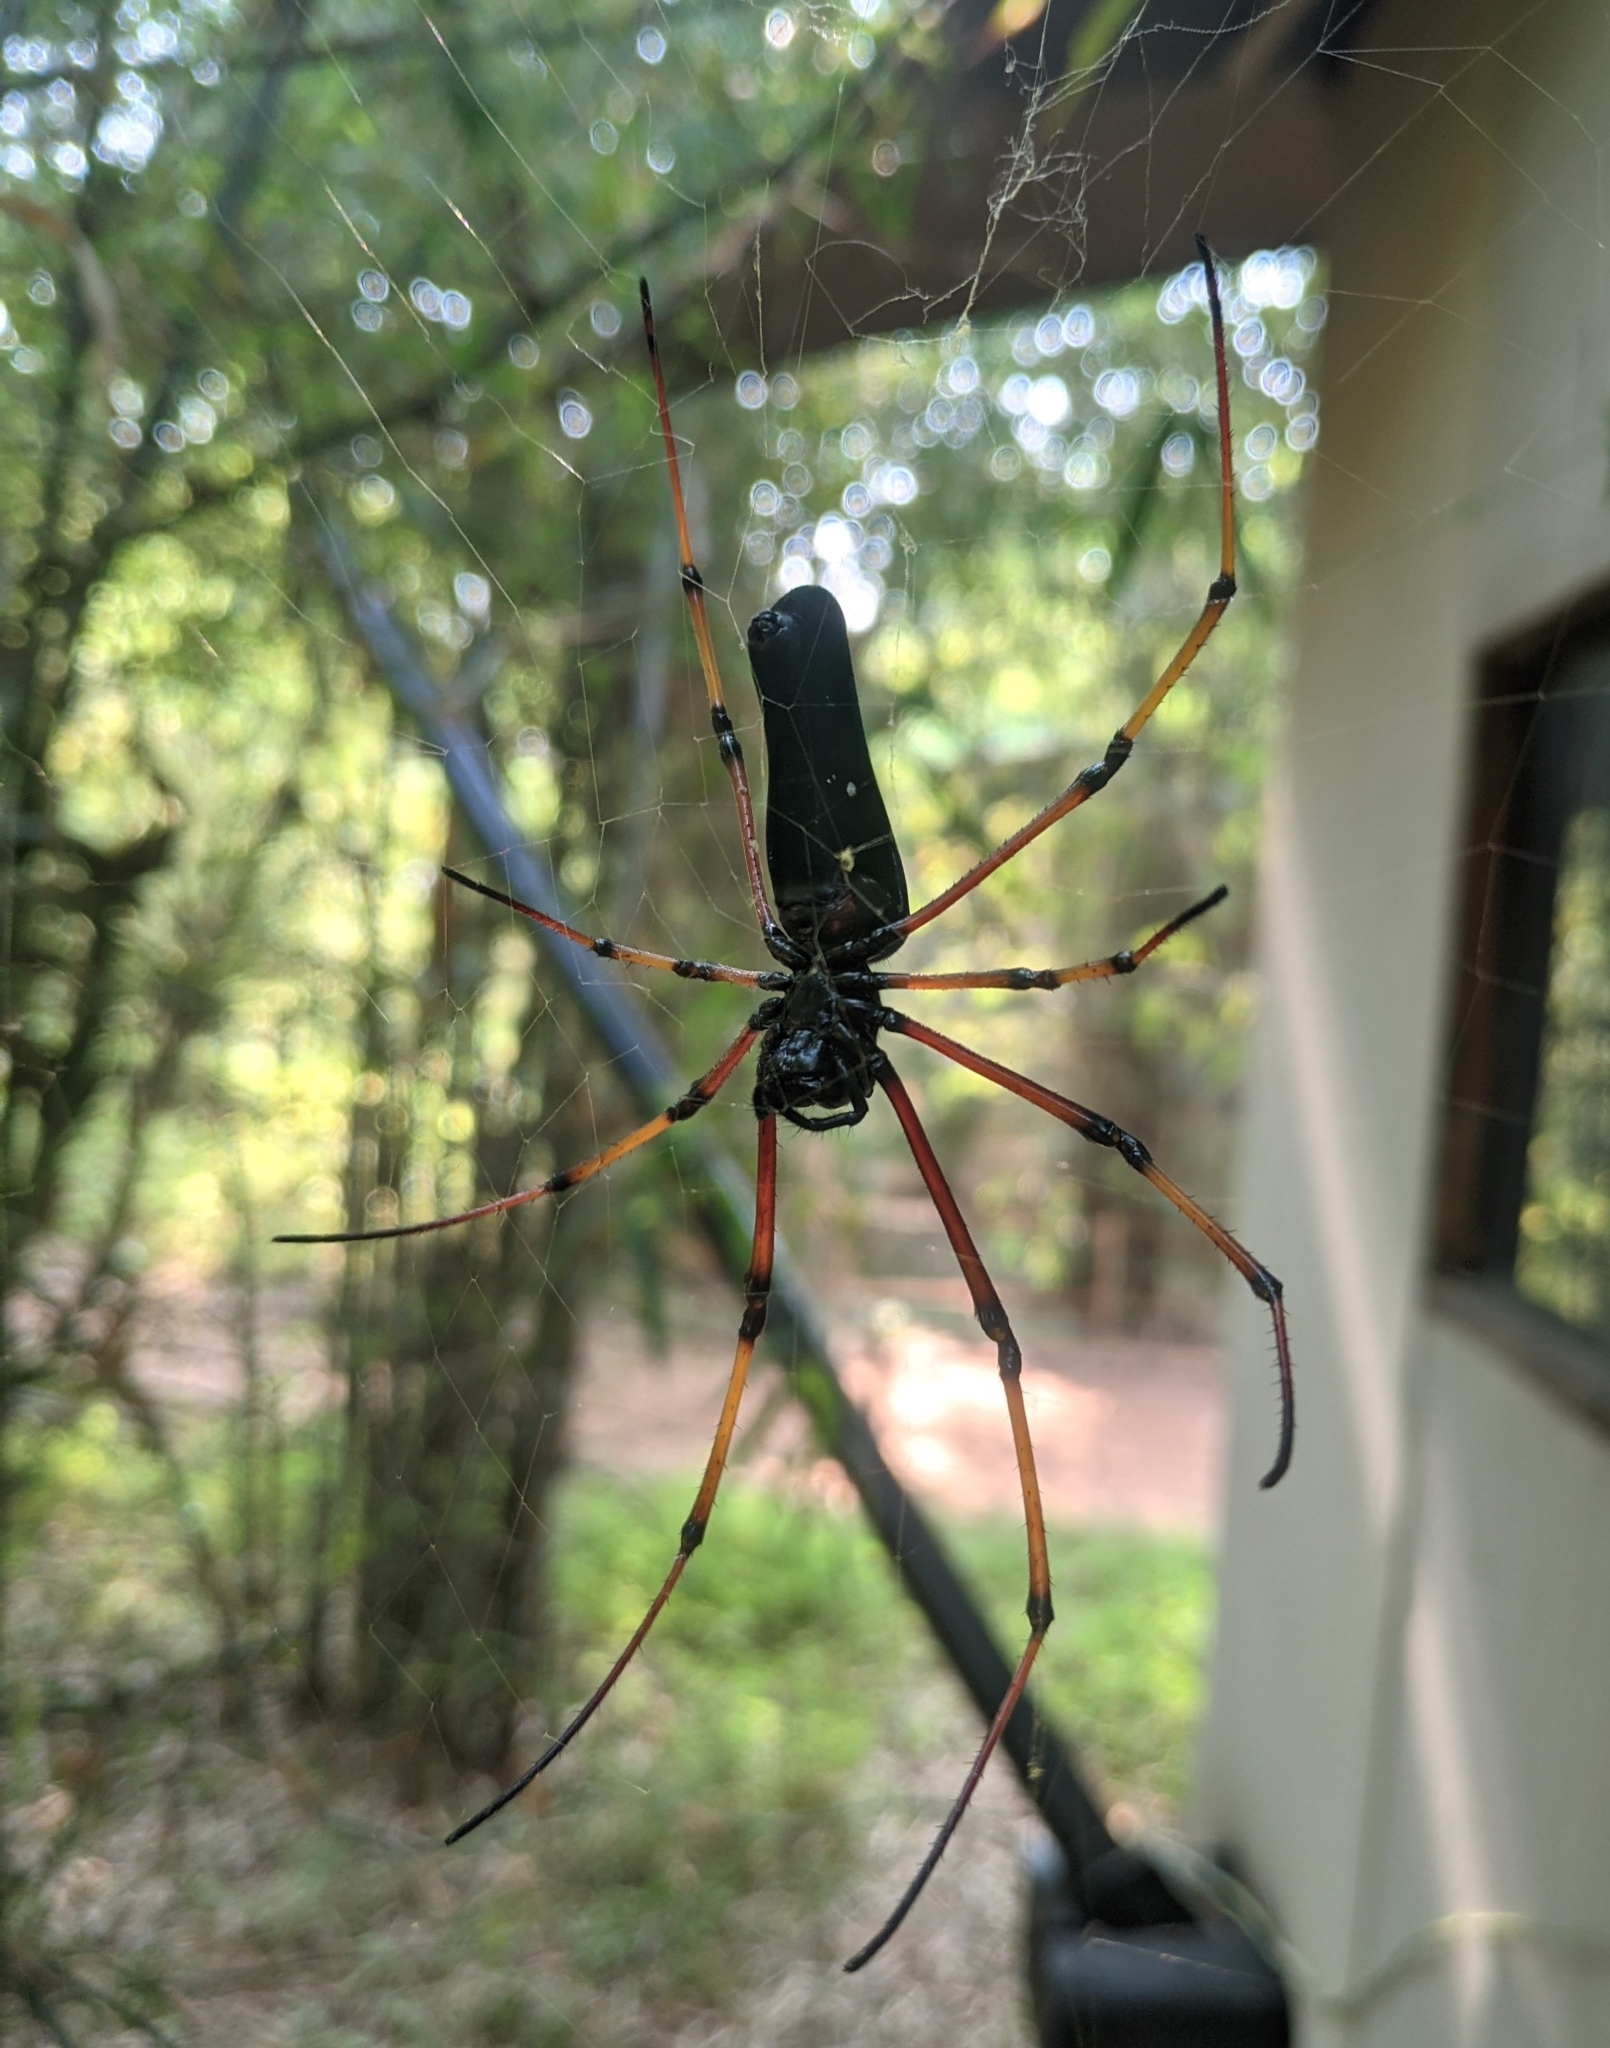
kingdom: Animalia
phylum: Arthropoda
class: Arachnida
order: Araneae
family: Araneidae
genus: Nephila
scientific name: Nephila kuhli
